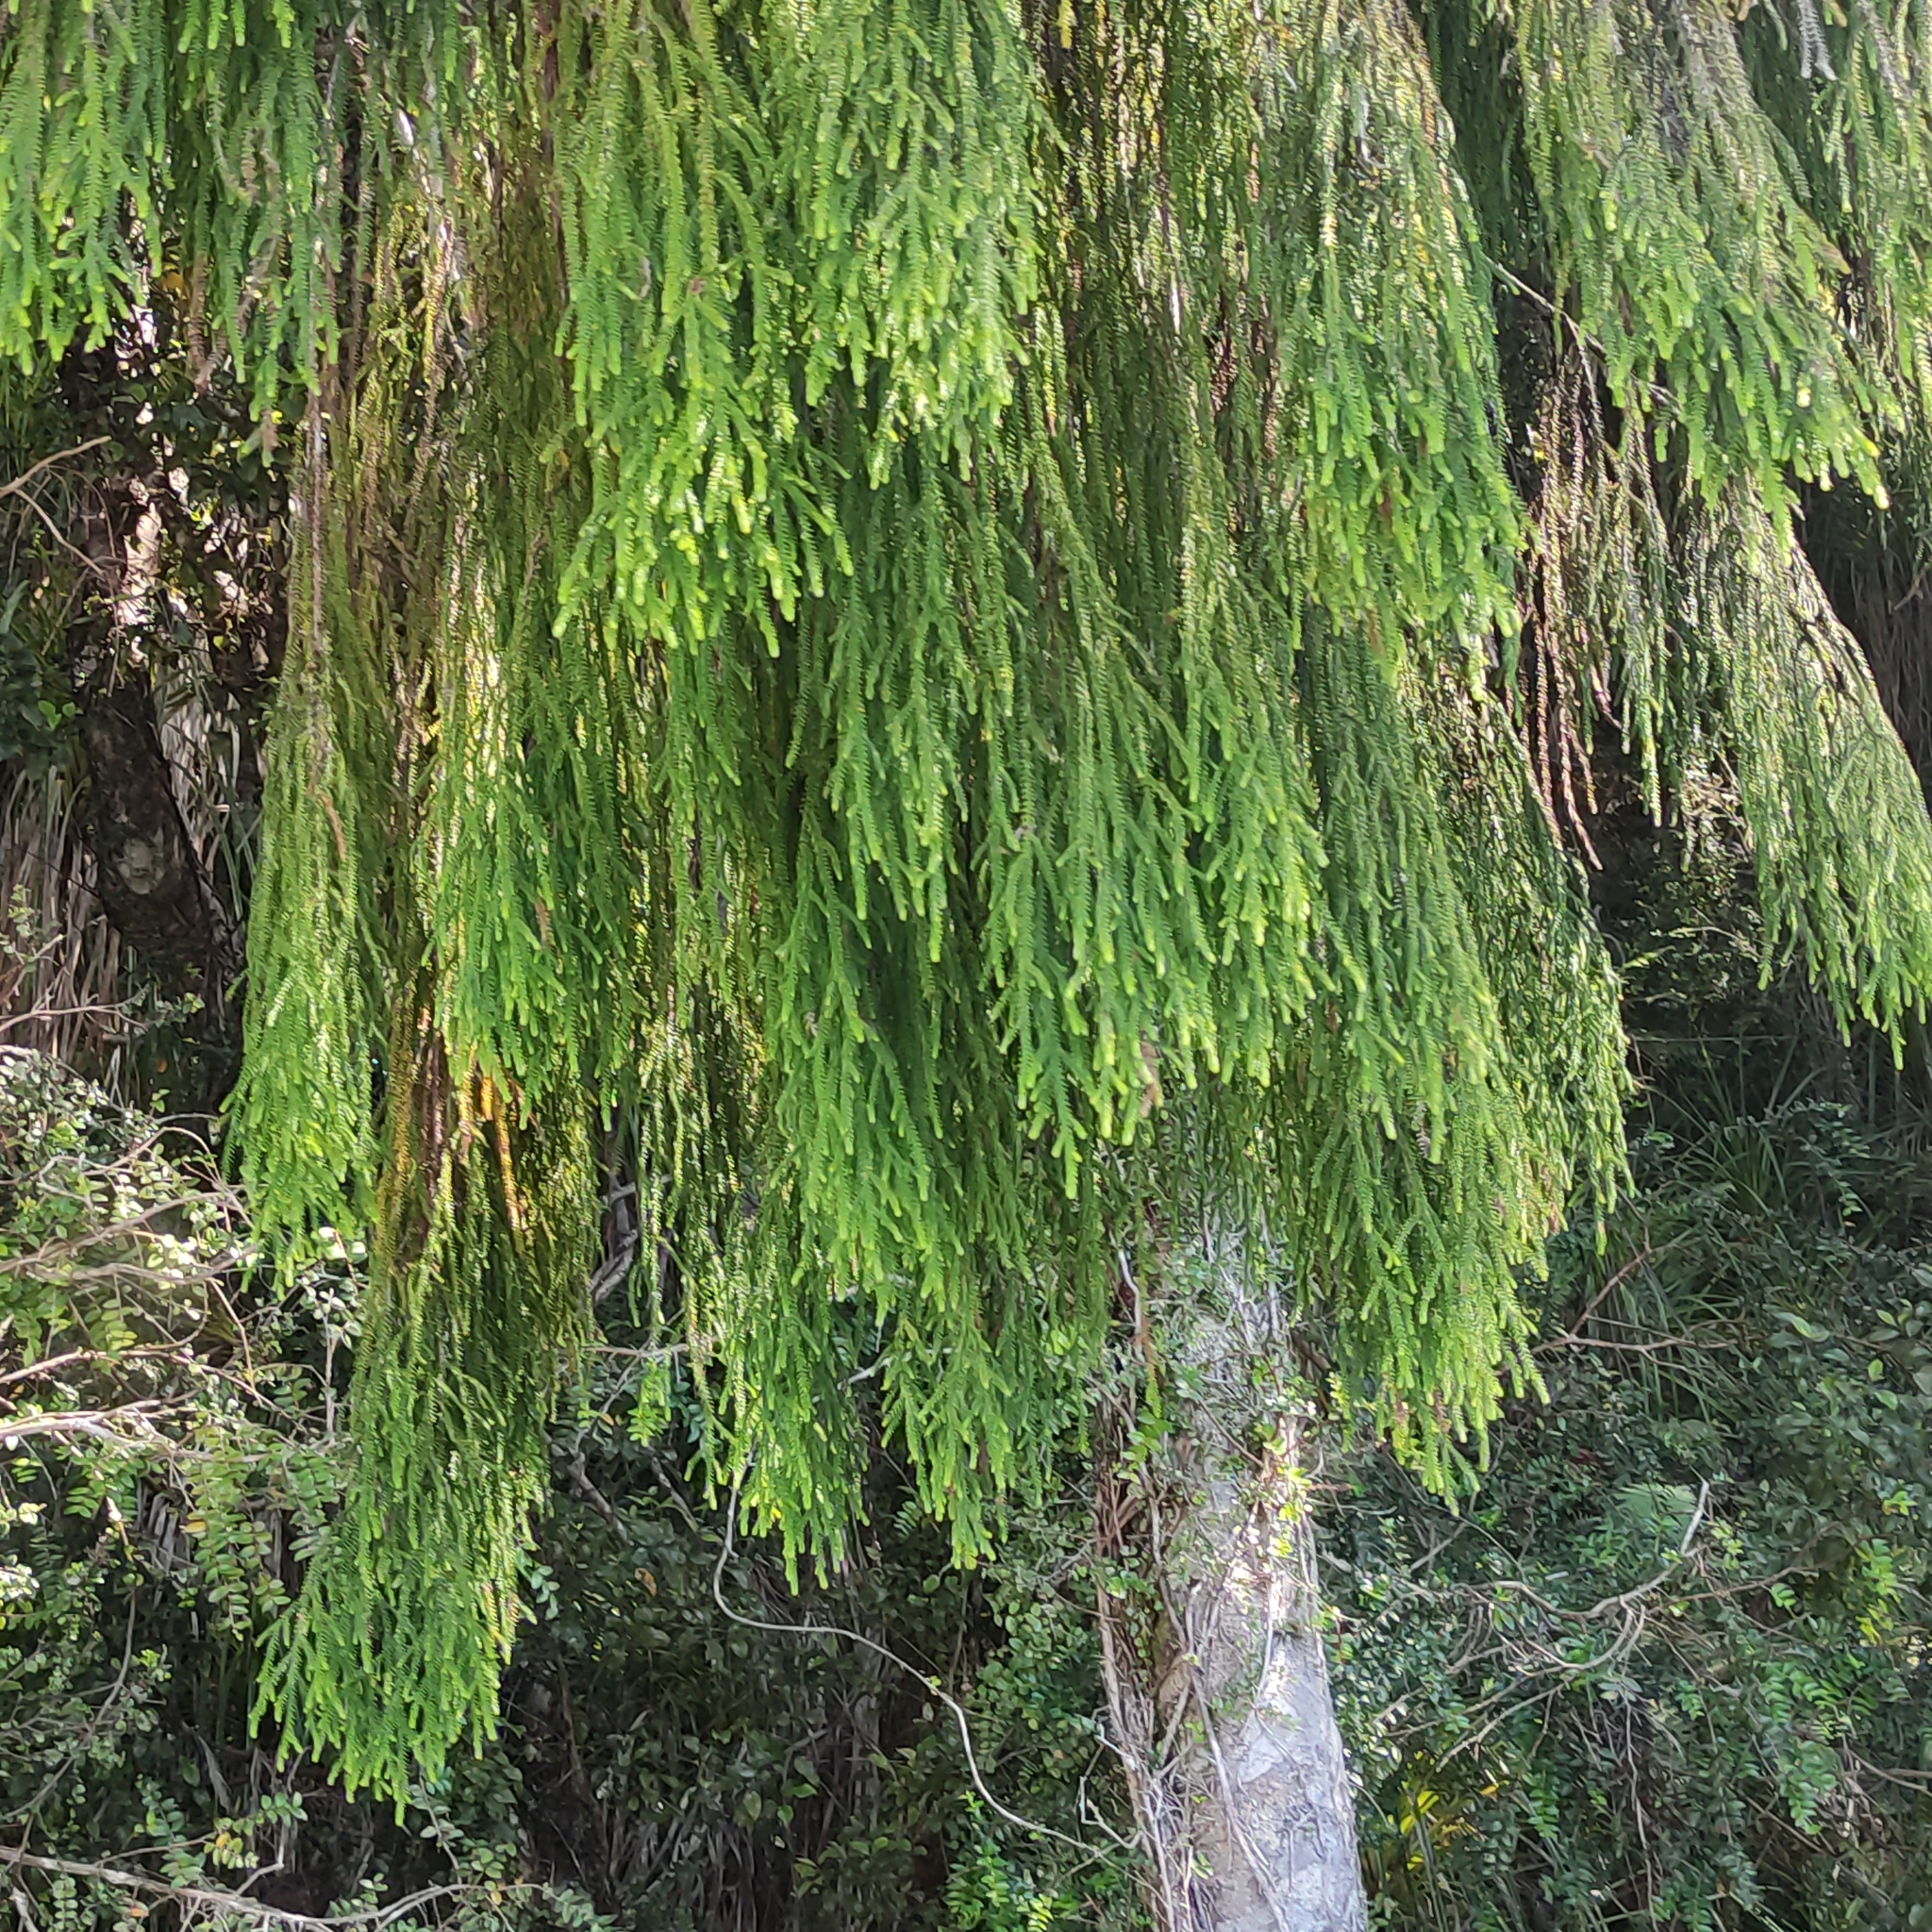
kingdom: Plantae
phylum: Tracheophyta
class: Pinopsida
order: Pinales
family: Podocarpaceae
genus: Dacrydium
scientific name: Dacrydium cupressinum
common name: Red pine
